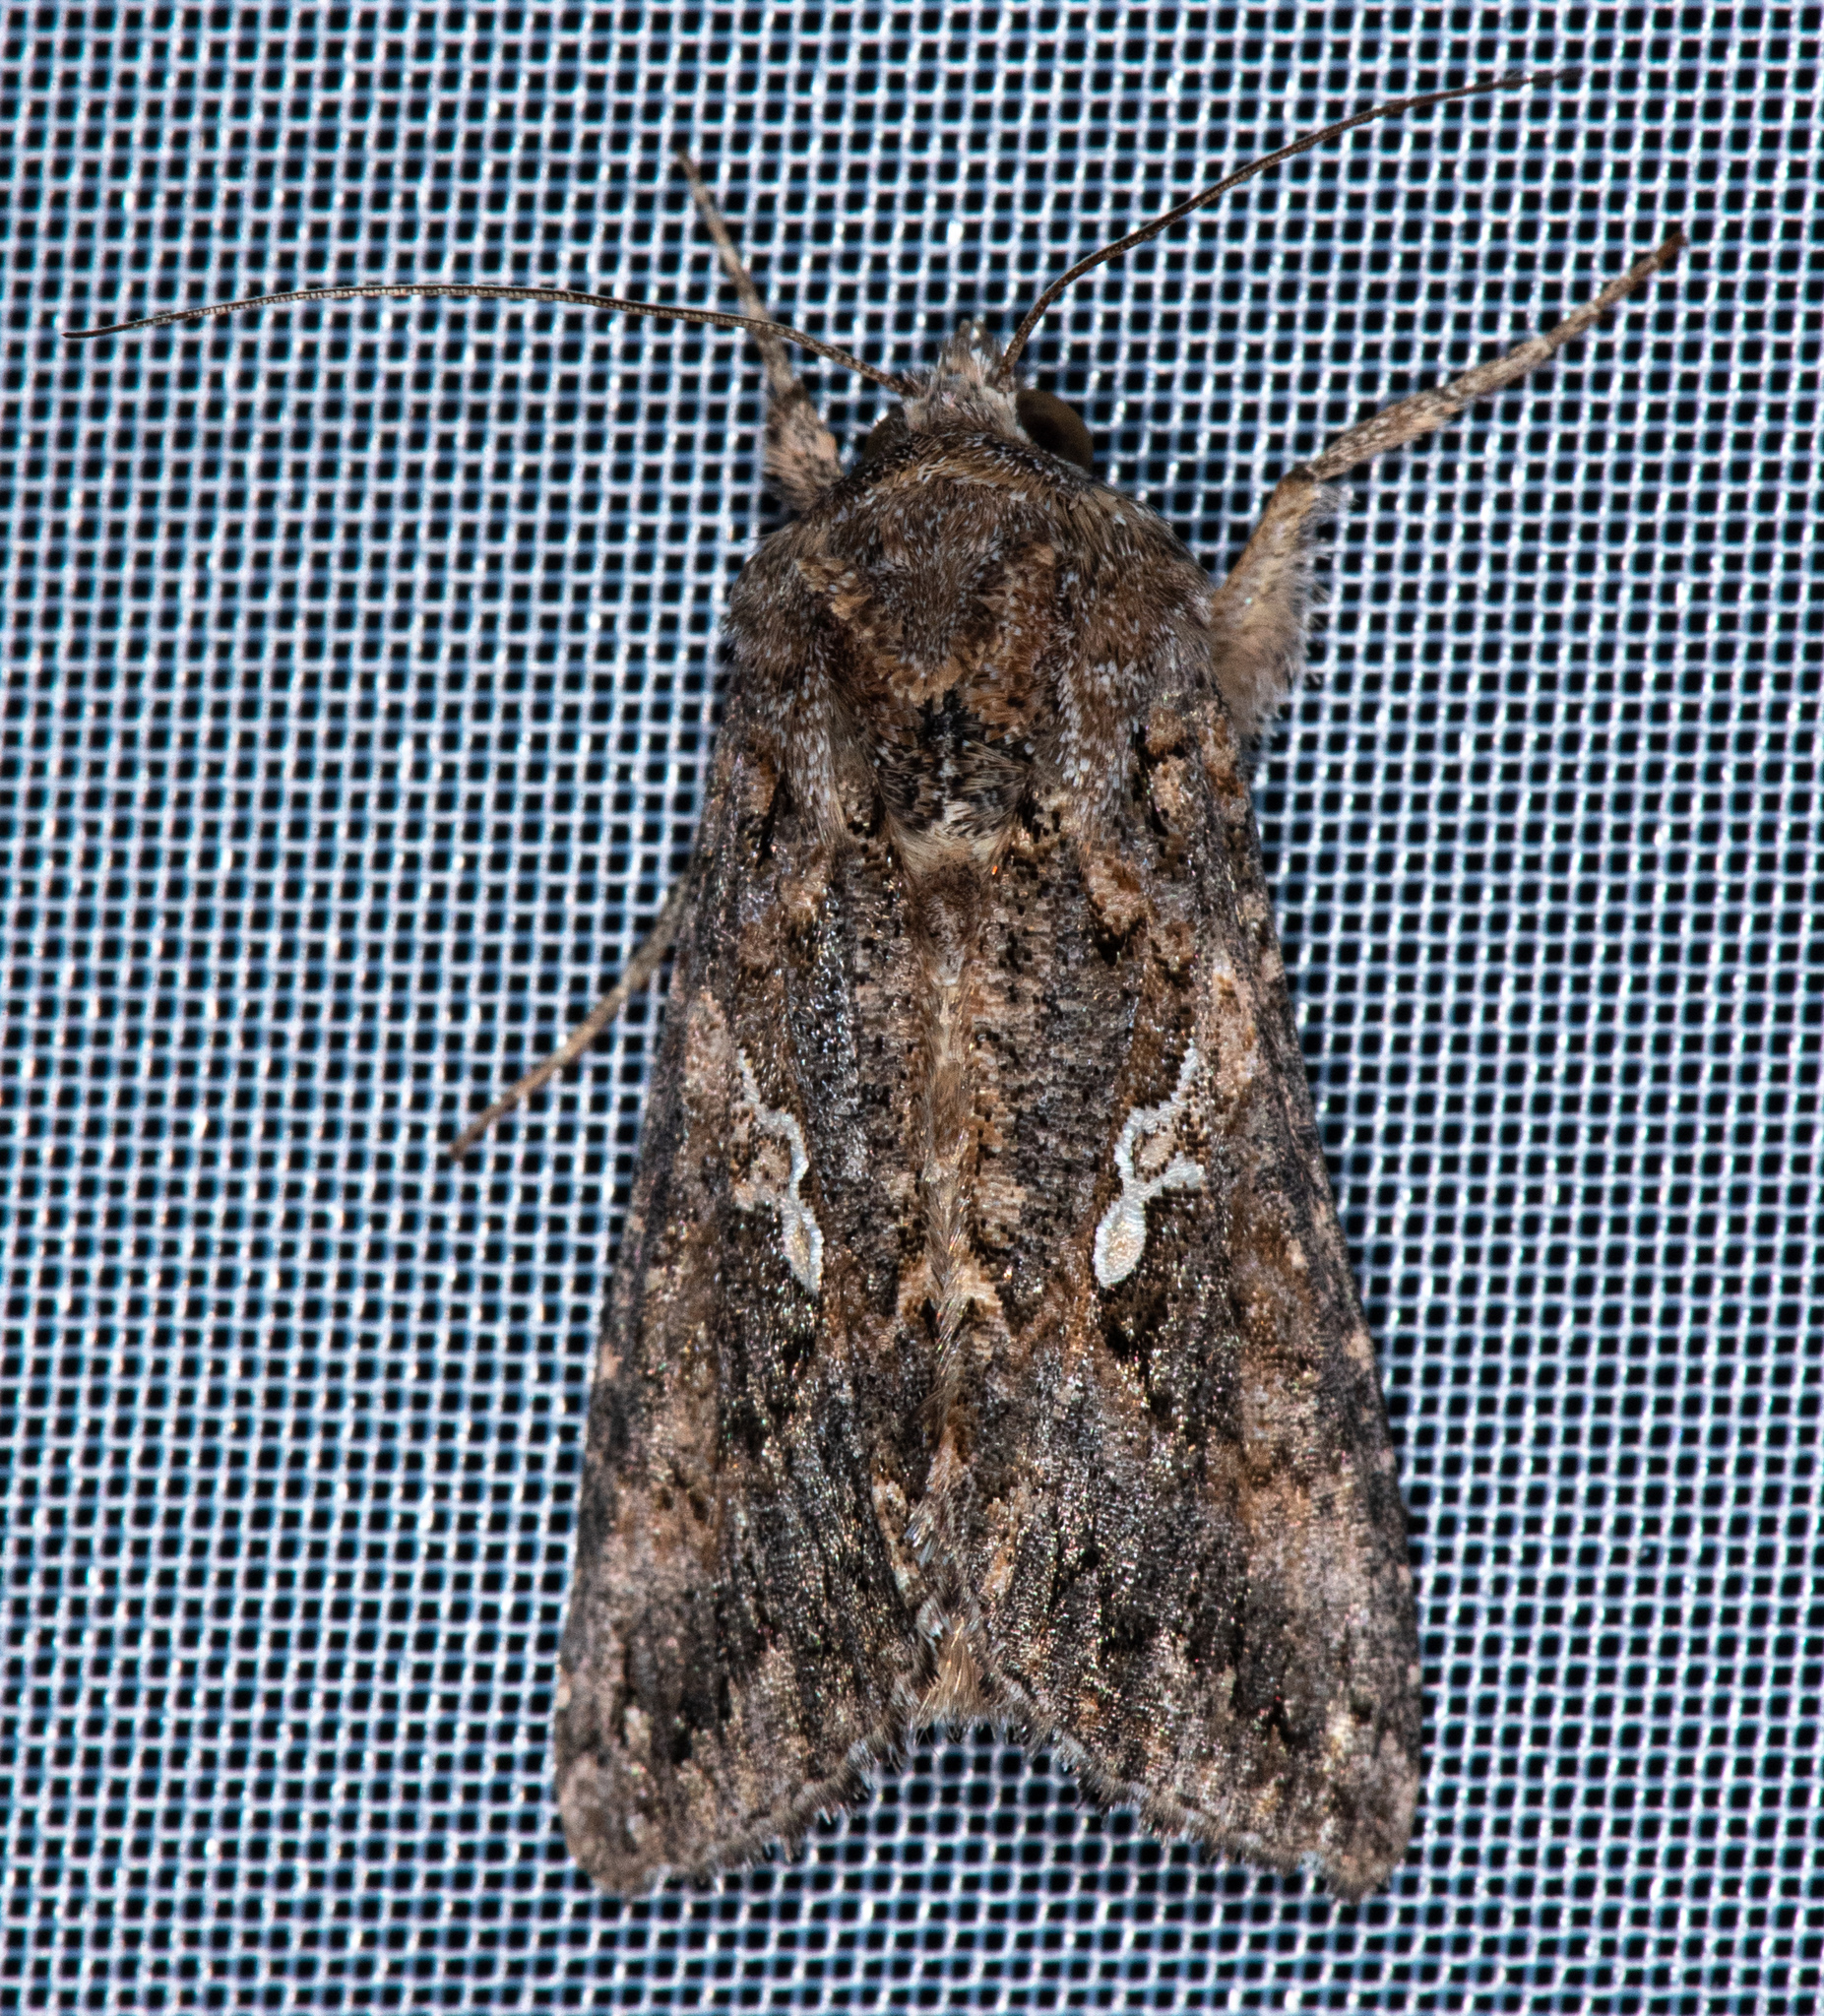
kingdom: Animalia
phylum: Arthropoda
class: Insecta
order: Lepidoptera
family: Noctuidae
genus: Trichoplusia
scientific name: Trichoplusia ni
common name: Ni moth
